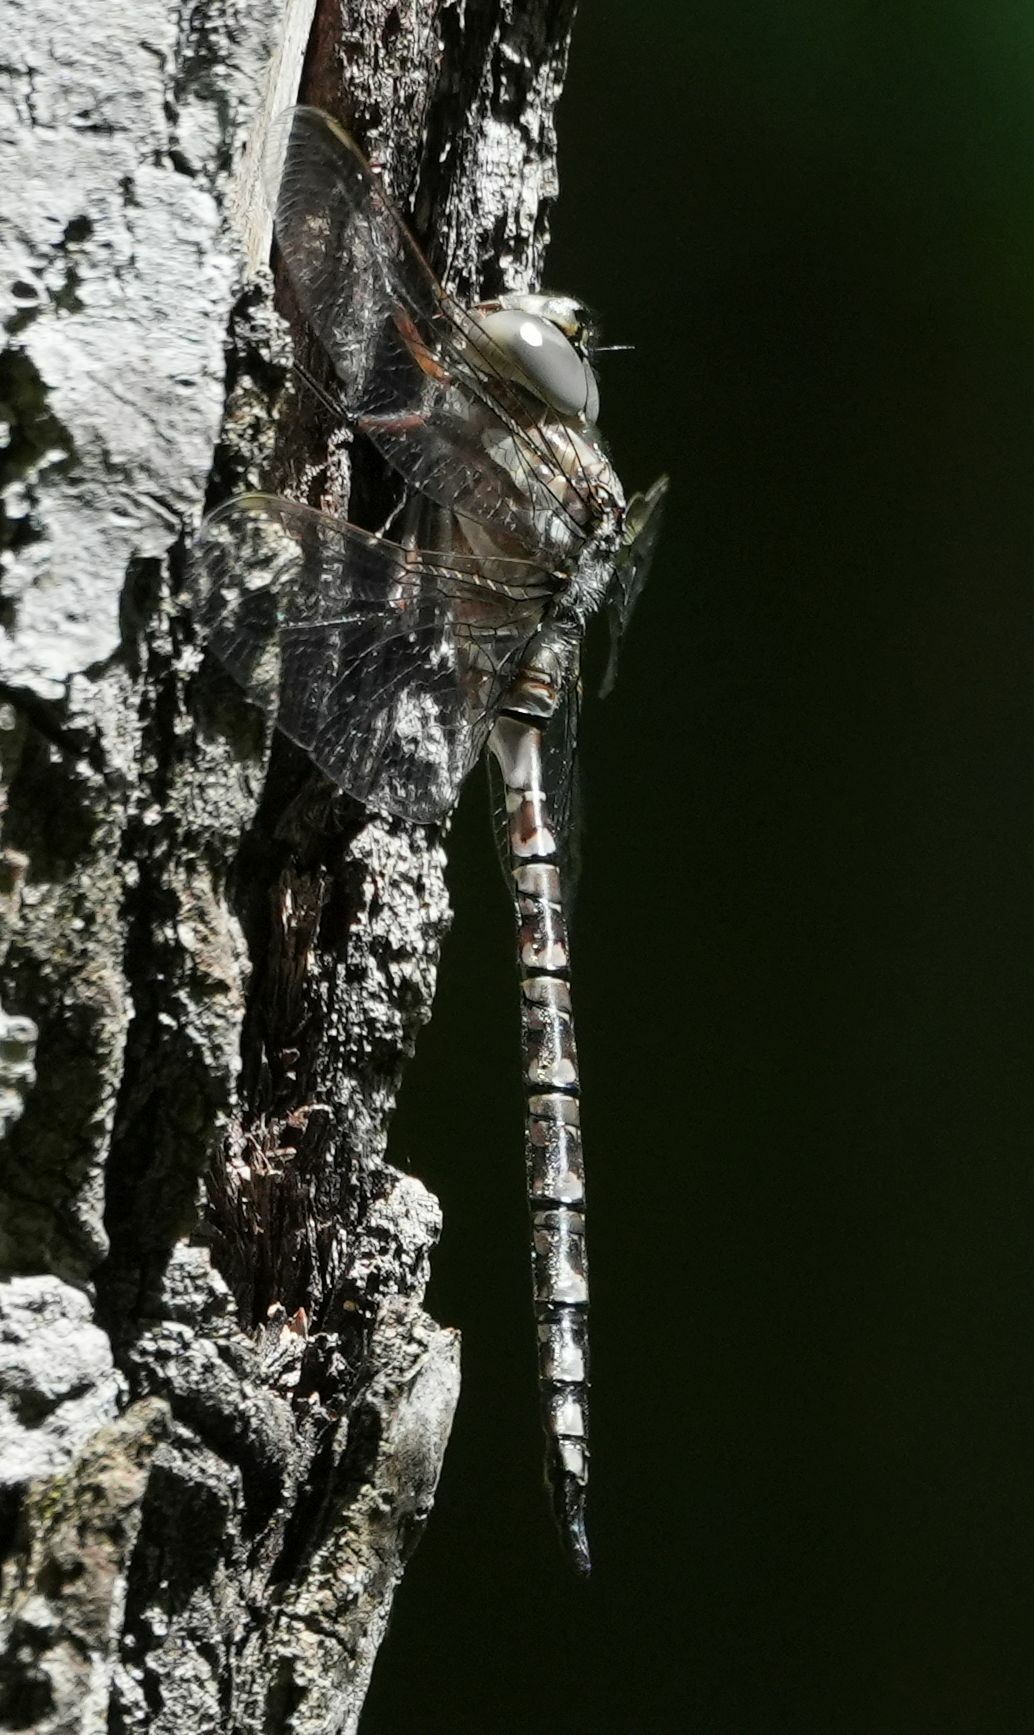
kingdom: Animalia
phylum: Arthropoda
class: Insecta
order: Odonata
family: Aeshnidae
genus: Aeshna
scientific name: Aeshna canadensis
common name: Canada darner
